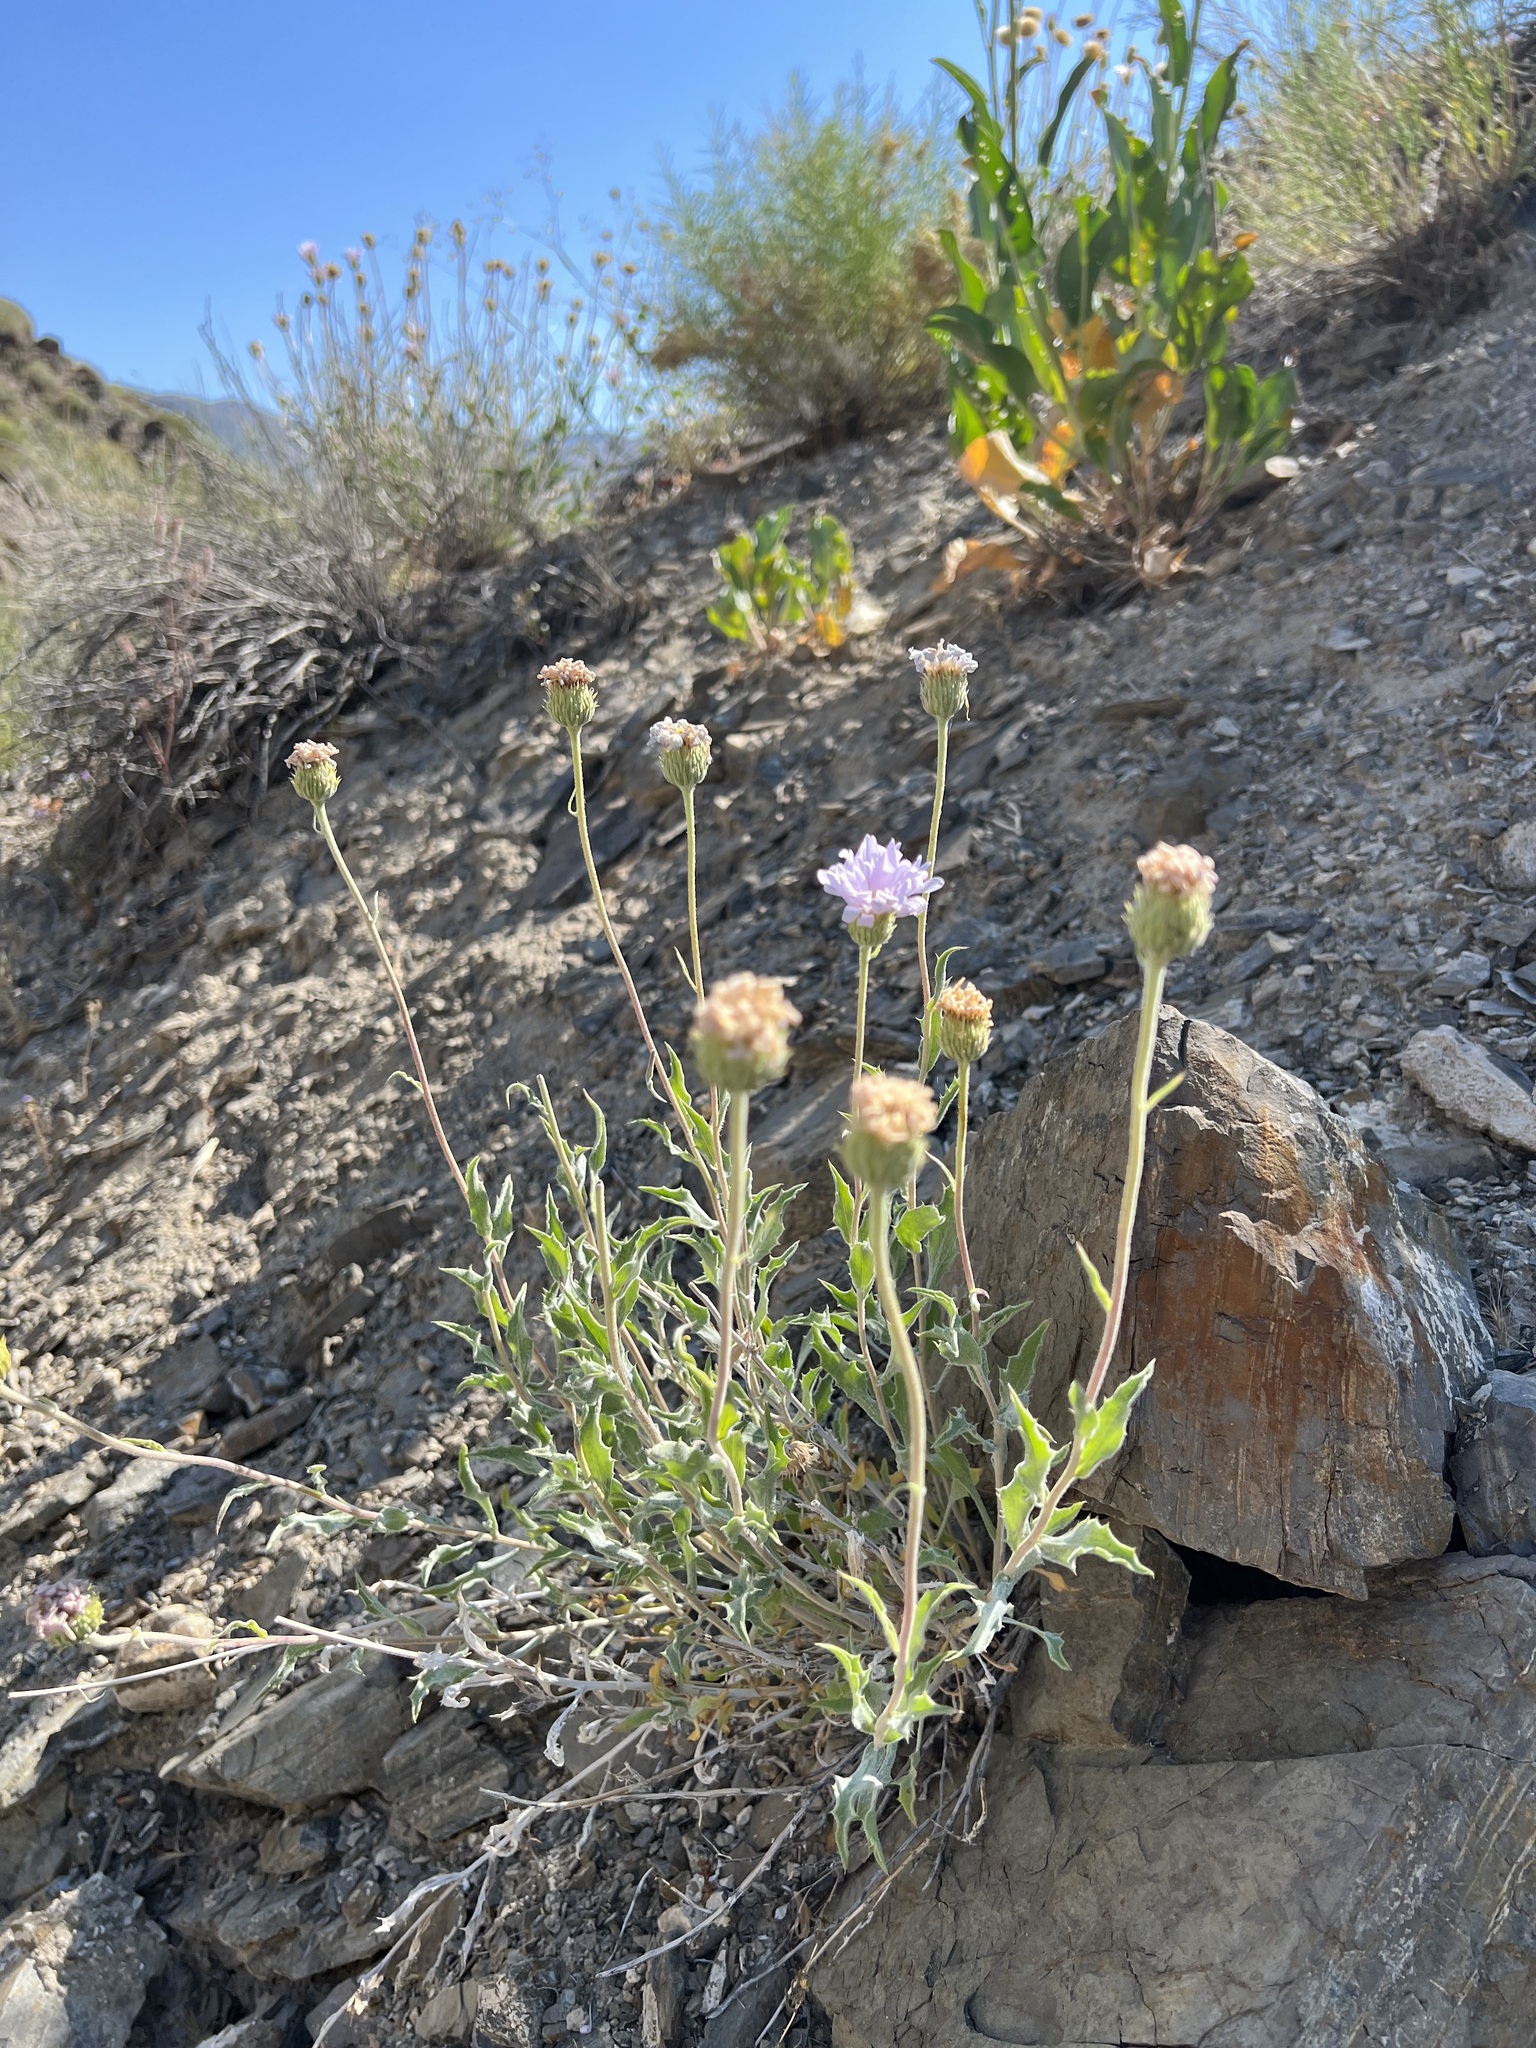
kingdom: Plantae
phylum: Tracheophyta
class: Magnoliopsida
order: Asterales
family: Asteraceae
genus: Xylorhiza
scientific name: Xylorhiza tortifolia
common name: Hurt-leaf woody-aster
